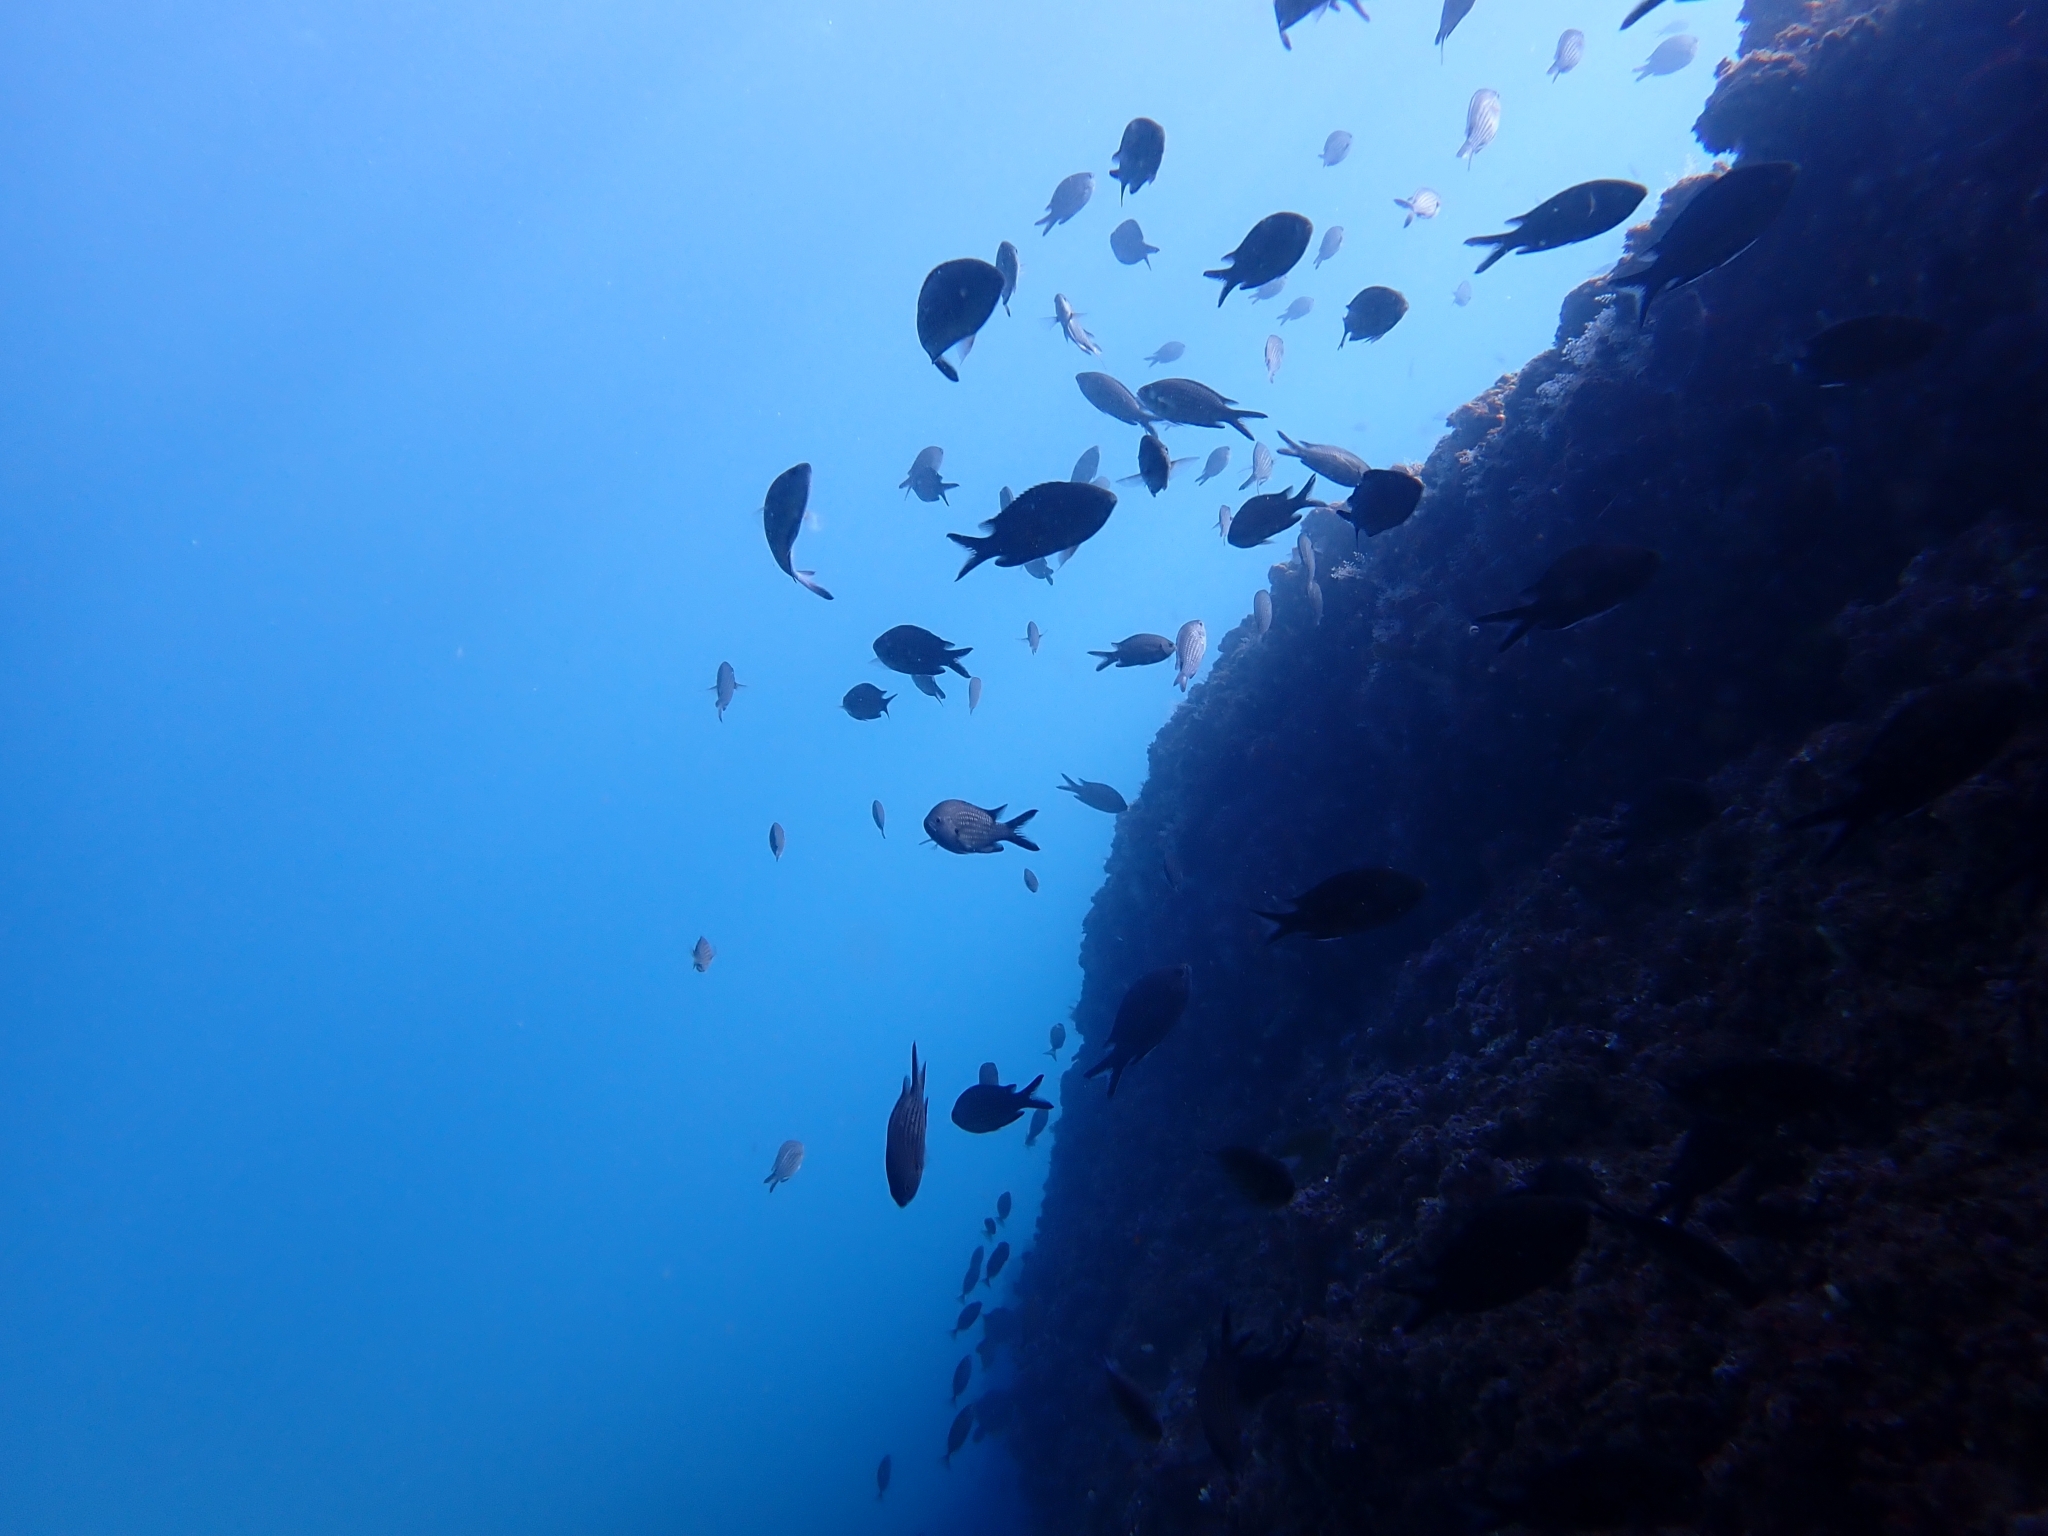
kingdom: Animalia
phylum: Chordata
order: Perciformes
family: Pomacentridae
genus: Chromis
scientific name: Chromis chromis
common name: Damselfish
